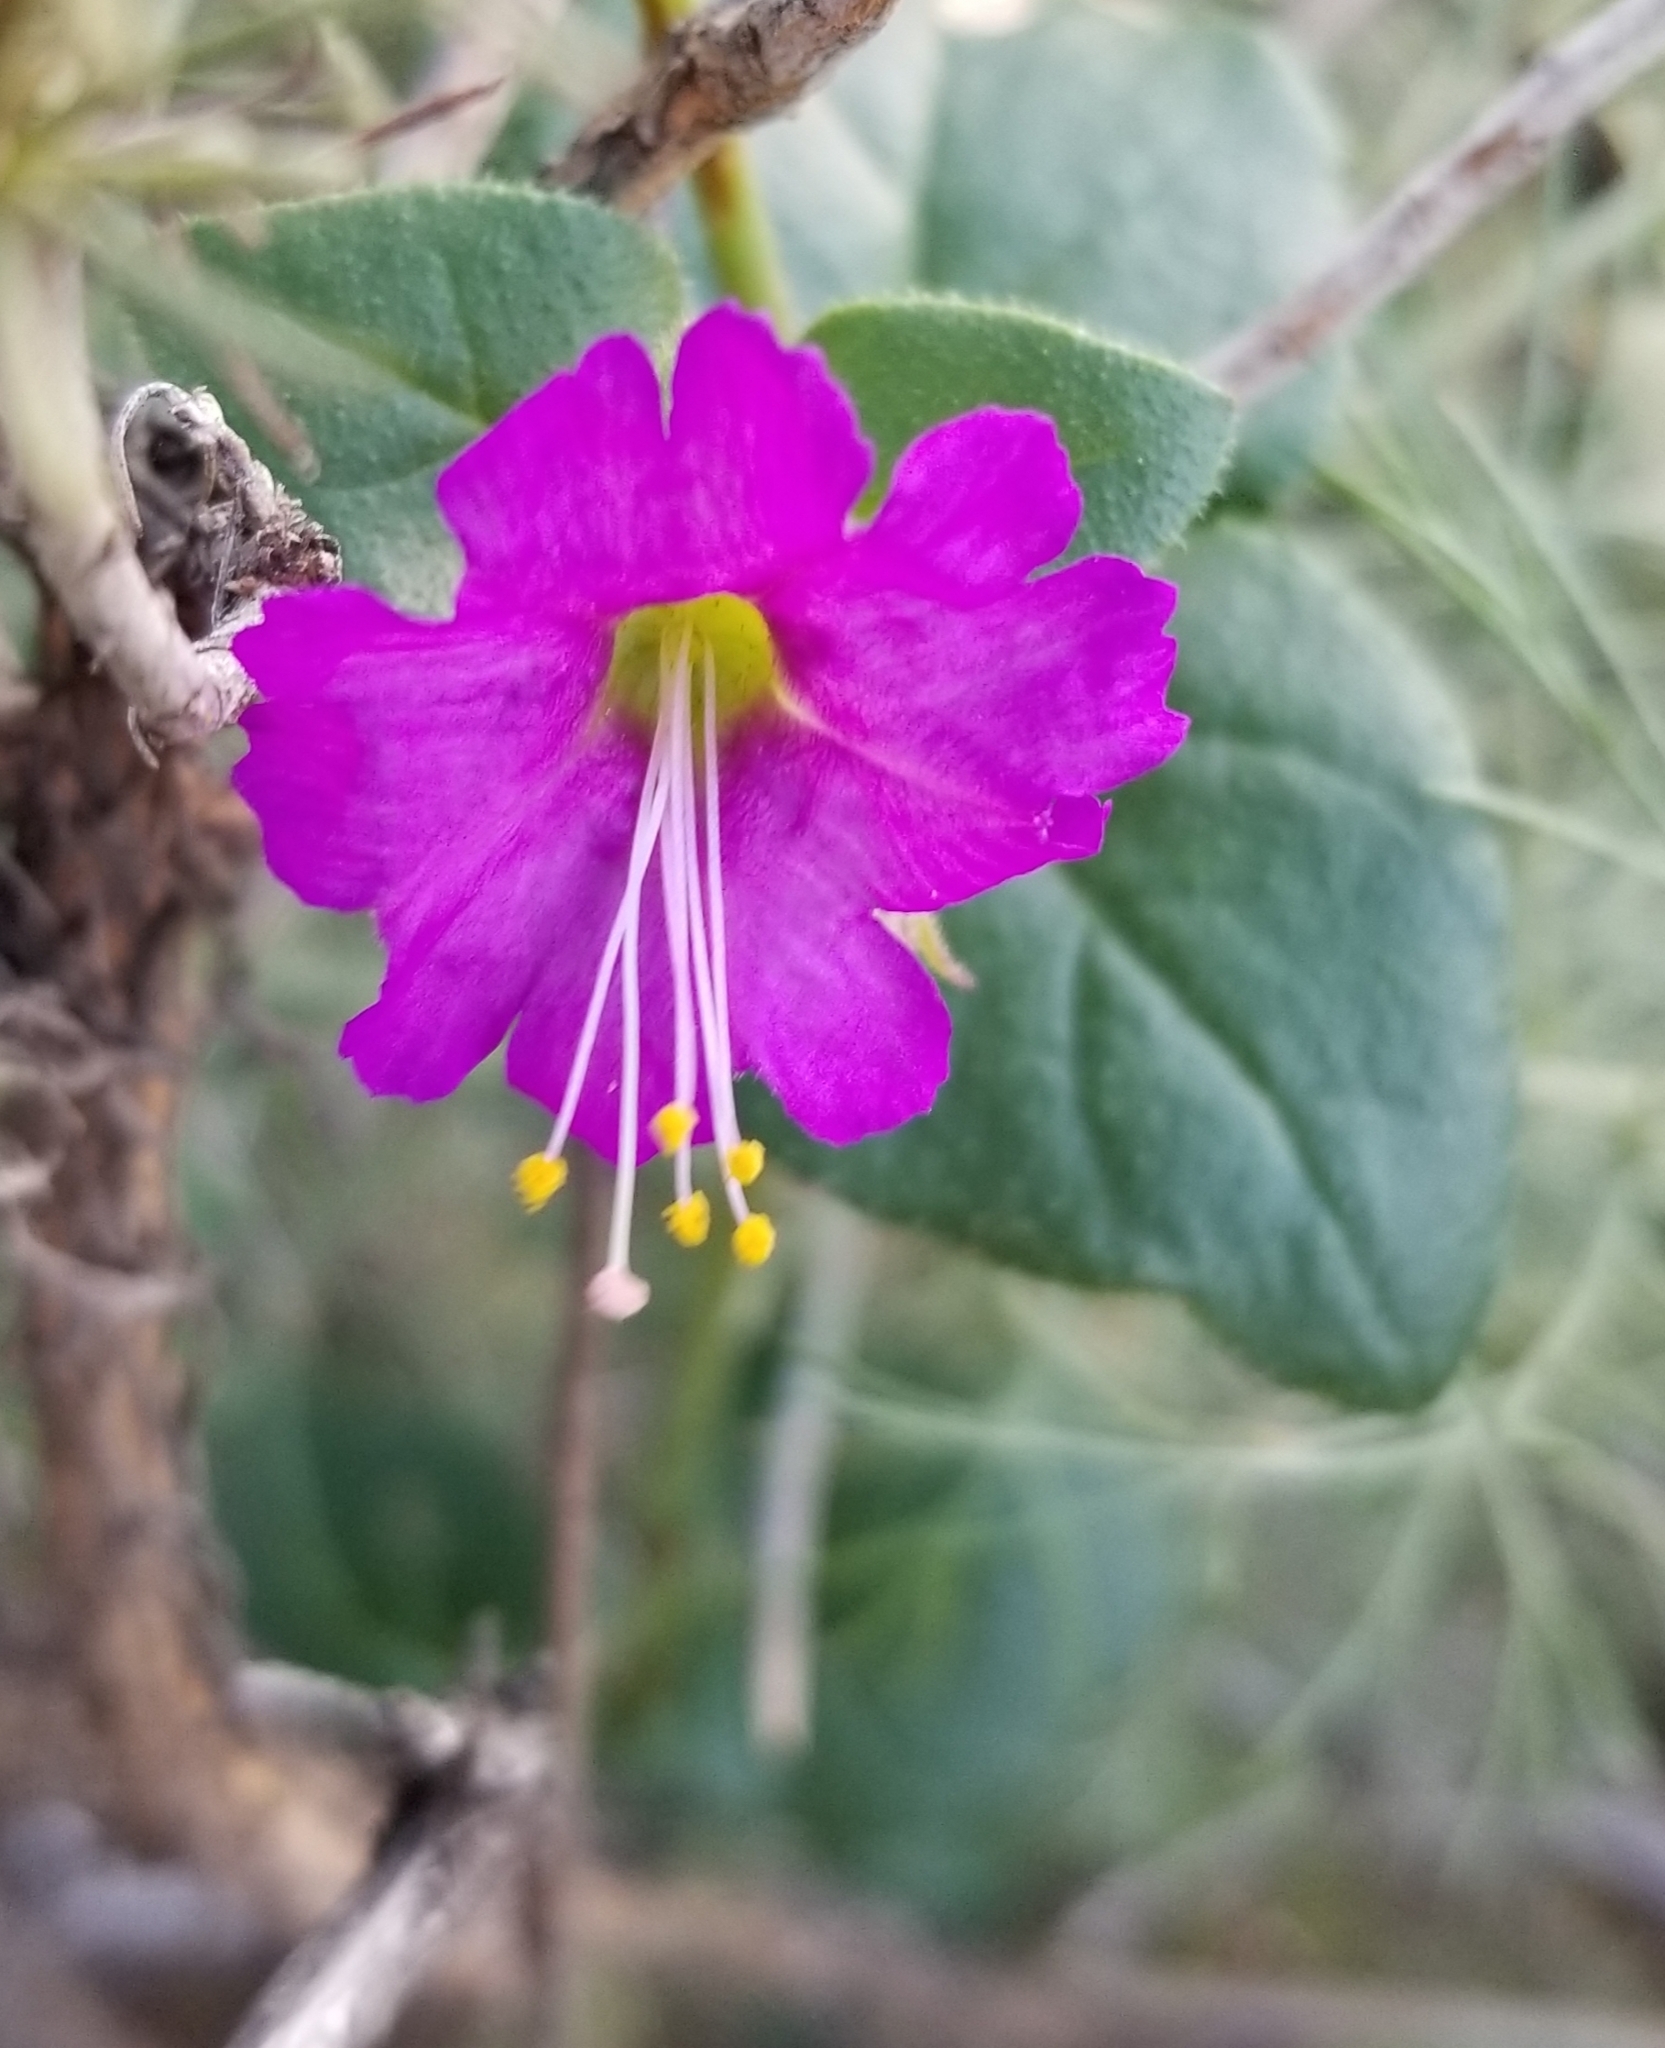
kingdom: Plantae
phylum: Tracheophyta
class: Magnoliopsida
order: Caryophyllales
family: Nyctaginaceae
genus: Mirabilis
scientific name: Mirabilis laevis
